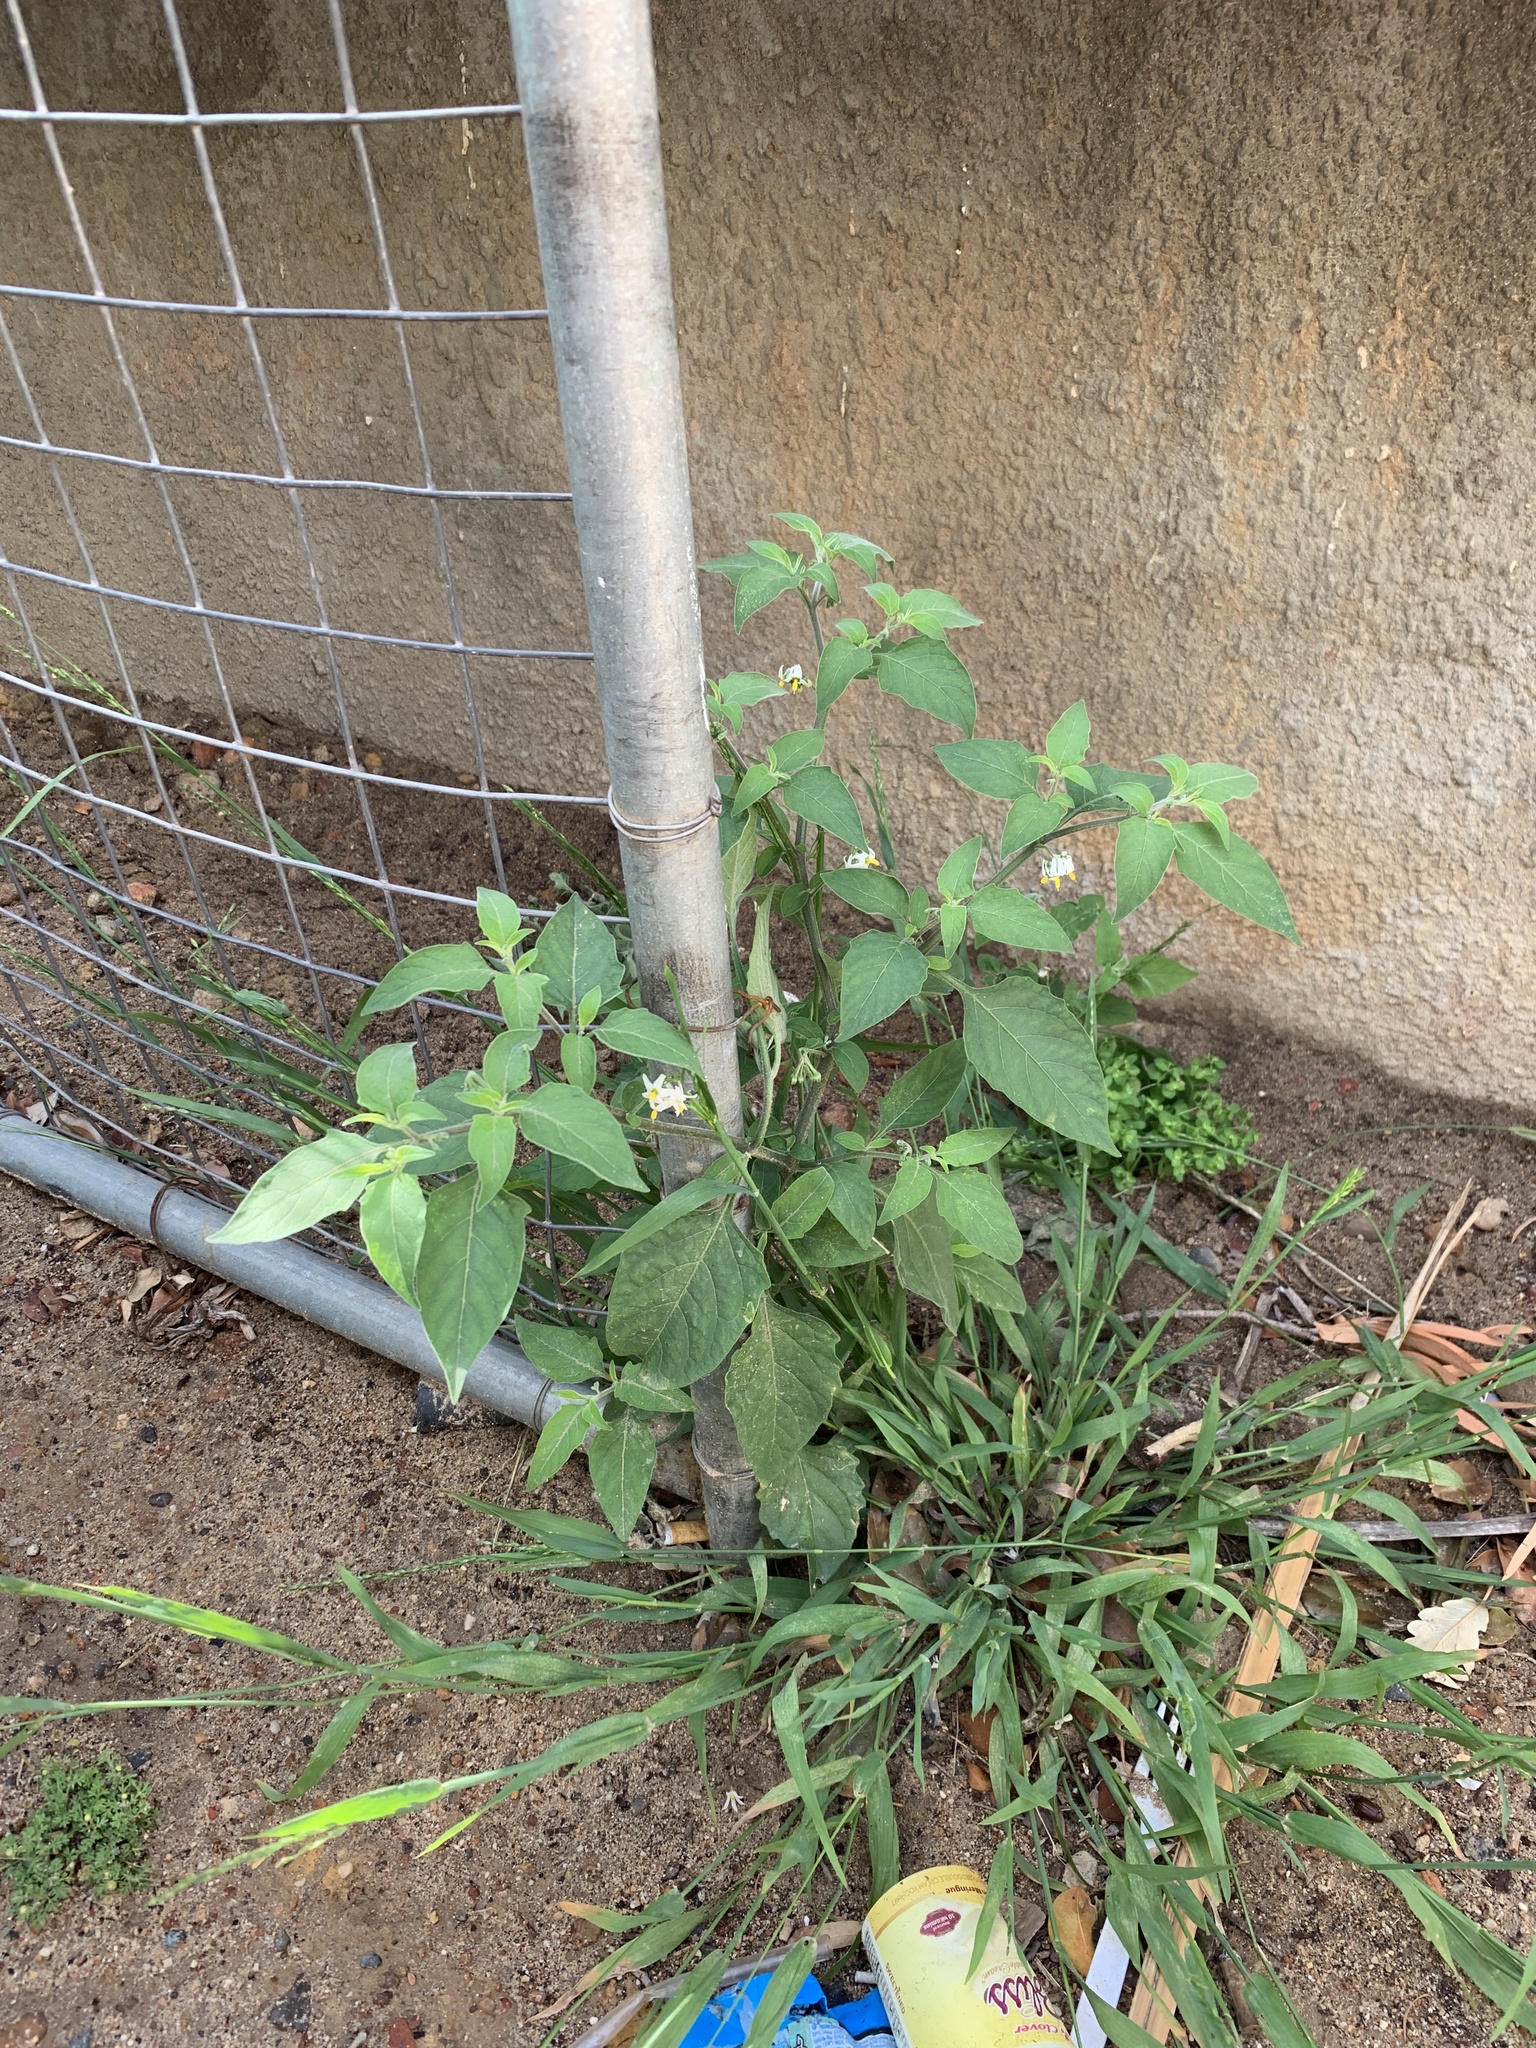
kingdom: Plantae
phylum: Tracheophyta
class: Magnoliopsida
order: Solanales
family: Solanaceae
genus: Solanum
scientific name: Solanum chenopodioides
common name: Tall nightshade
